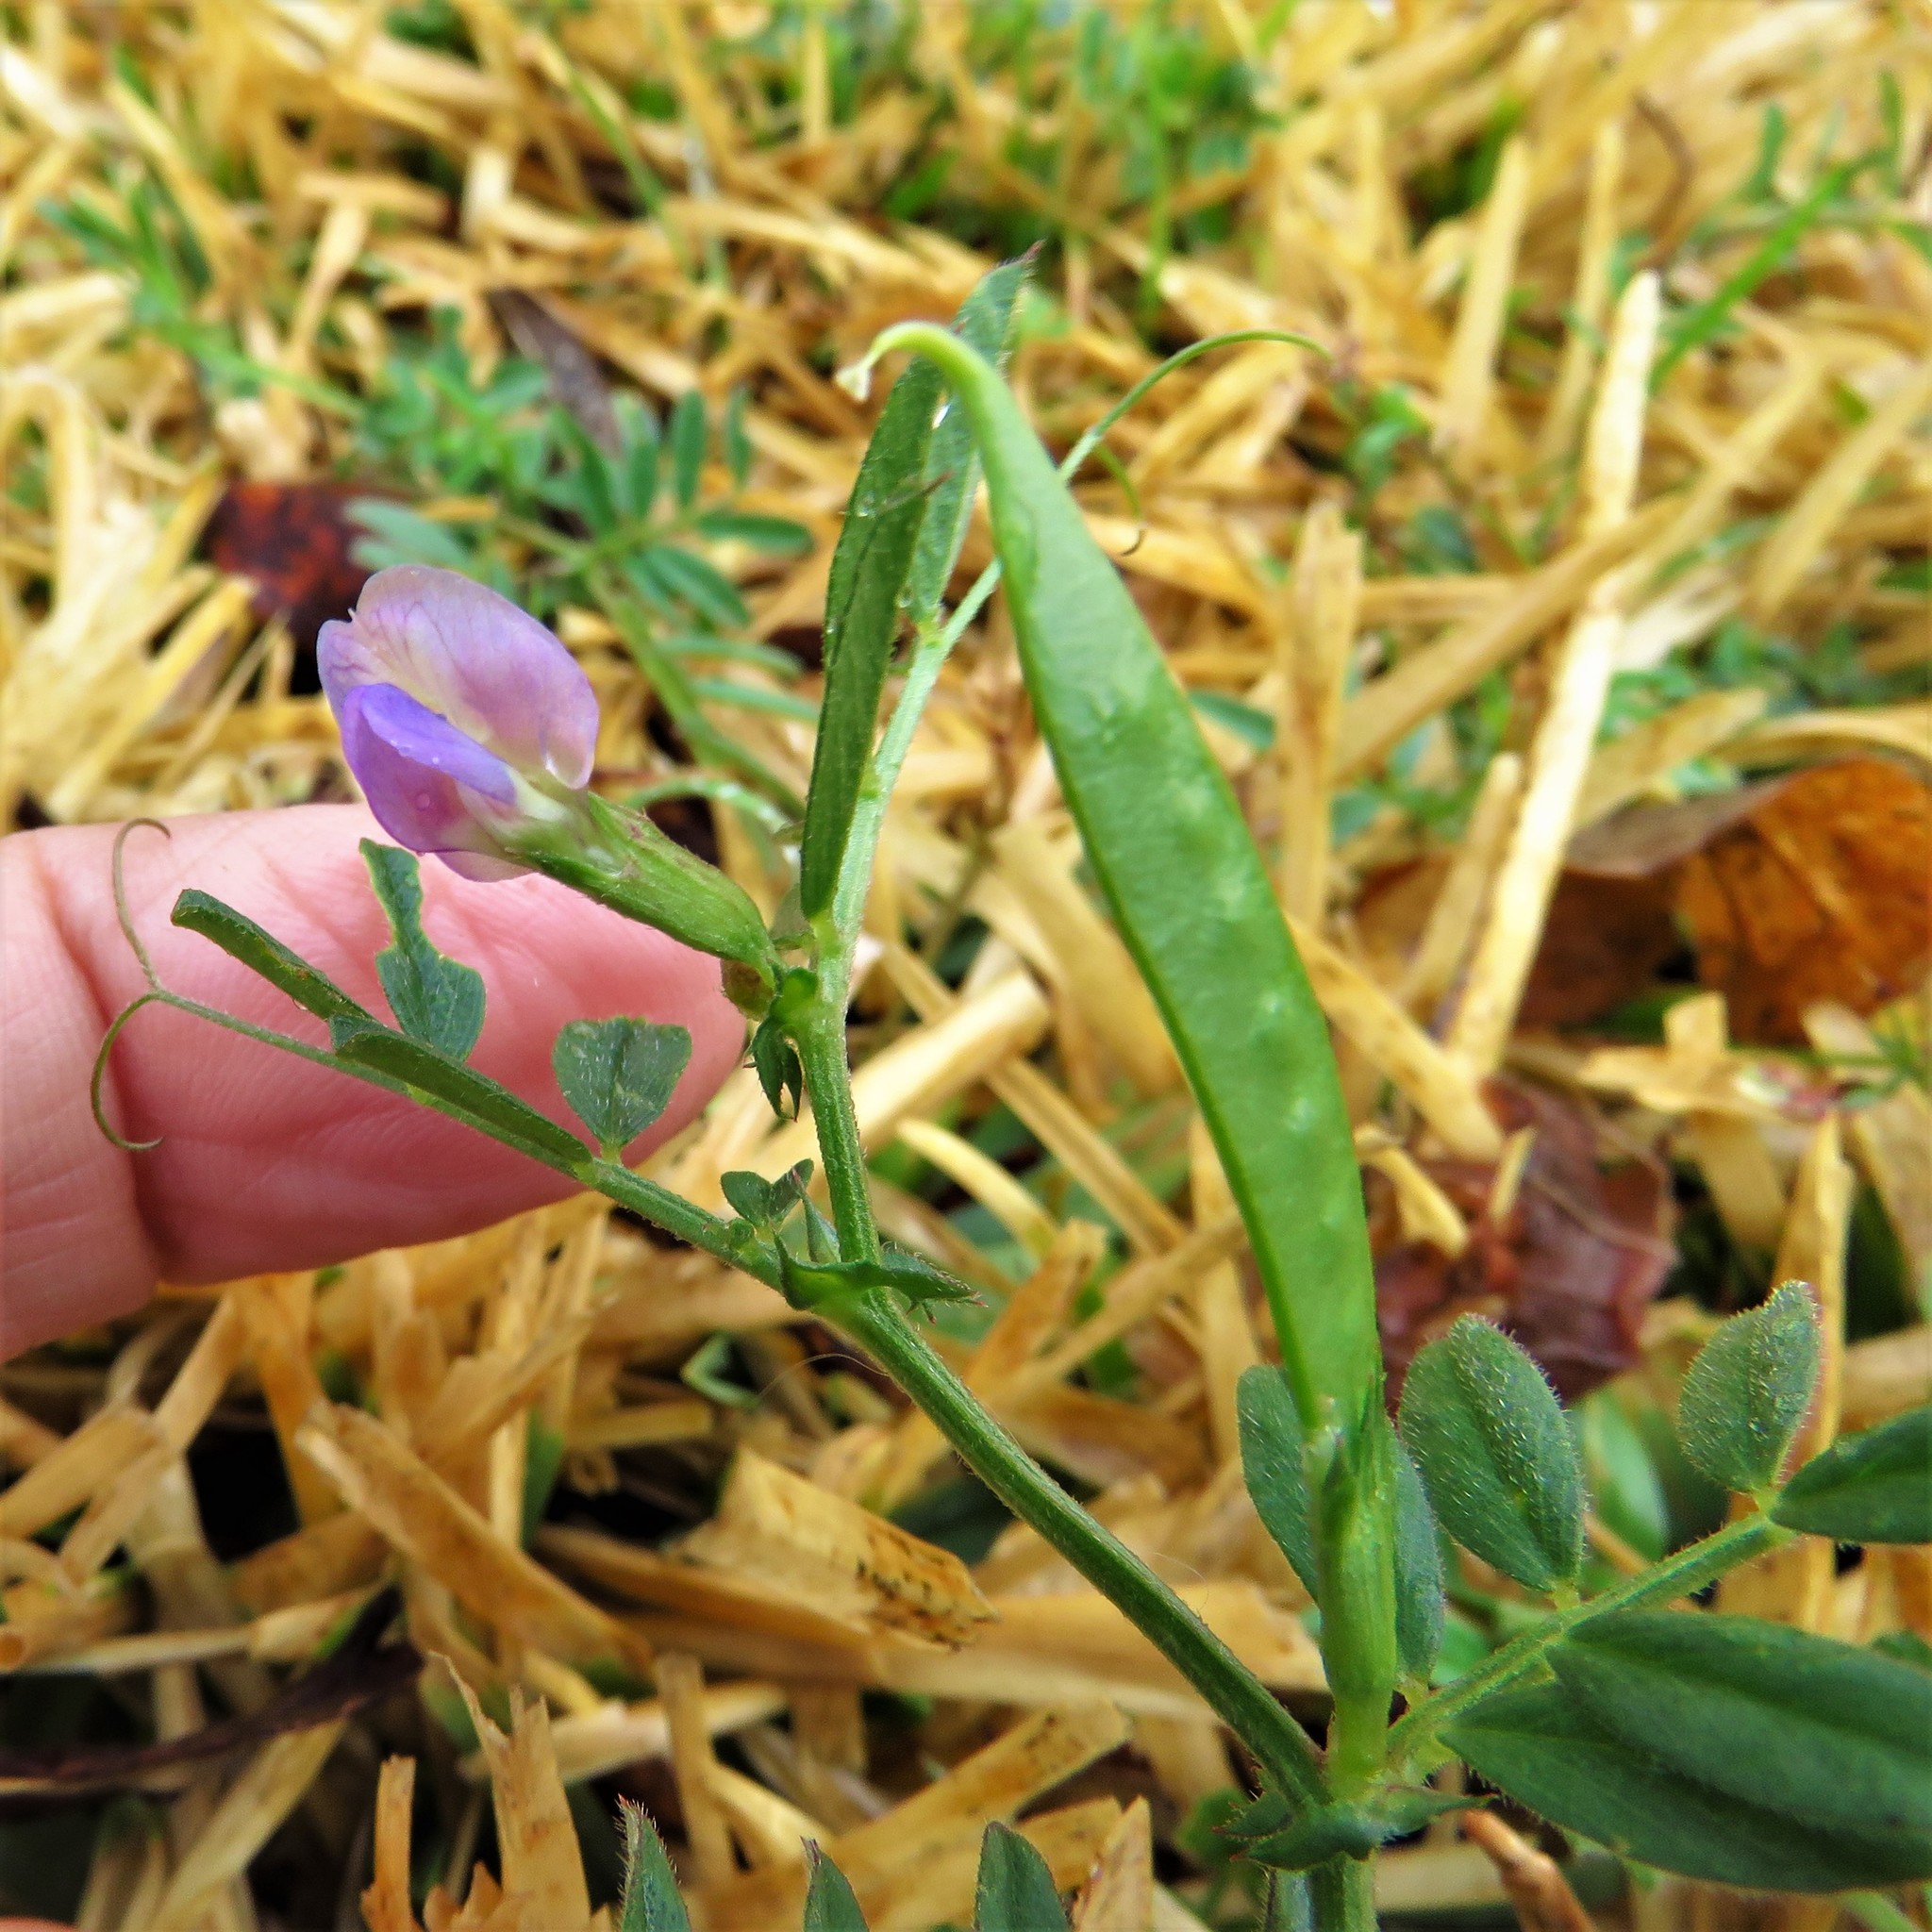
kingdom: Plantae
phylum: Tracheophyta
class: Magnoliopsida
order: Fabales
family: Fabaceae
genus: Vicia
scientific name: Vicia sativa
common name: Garden vetch
